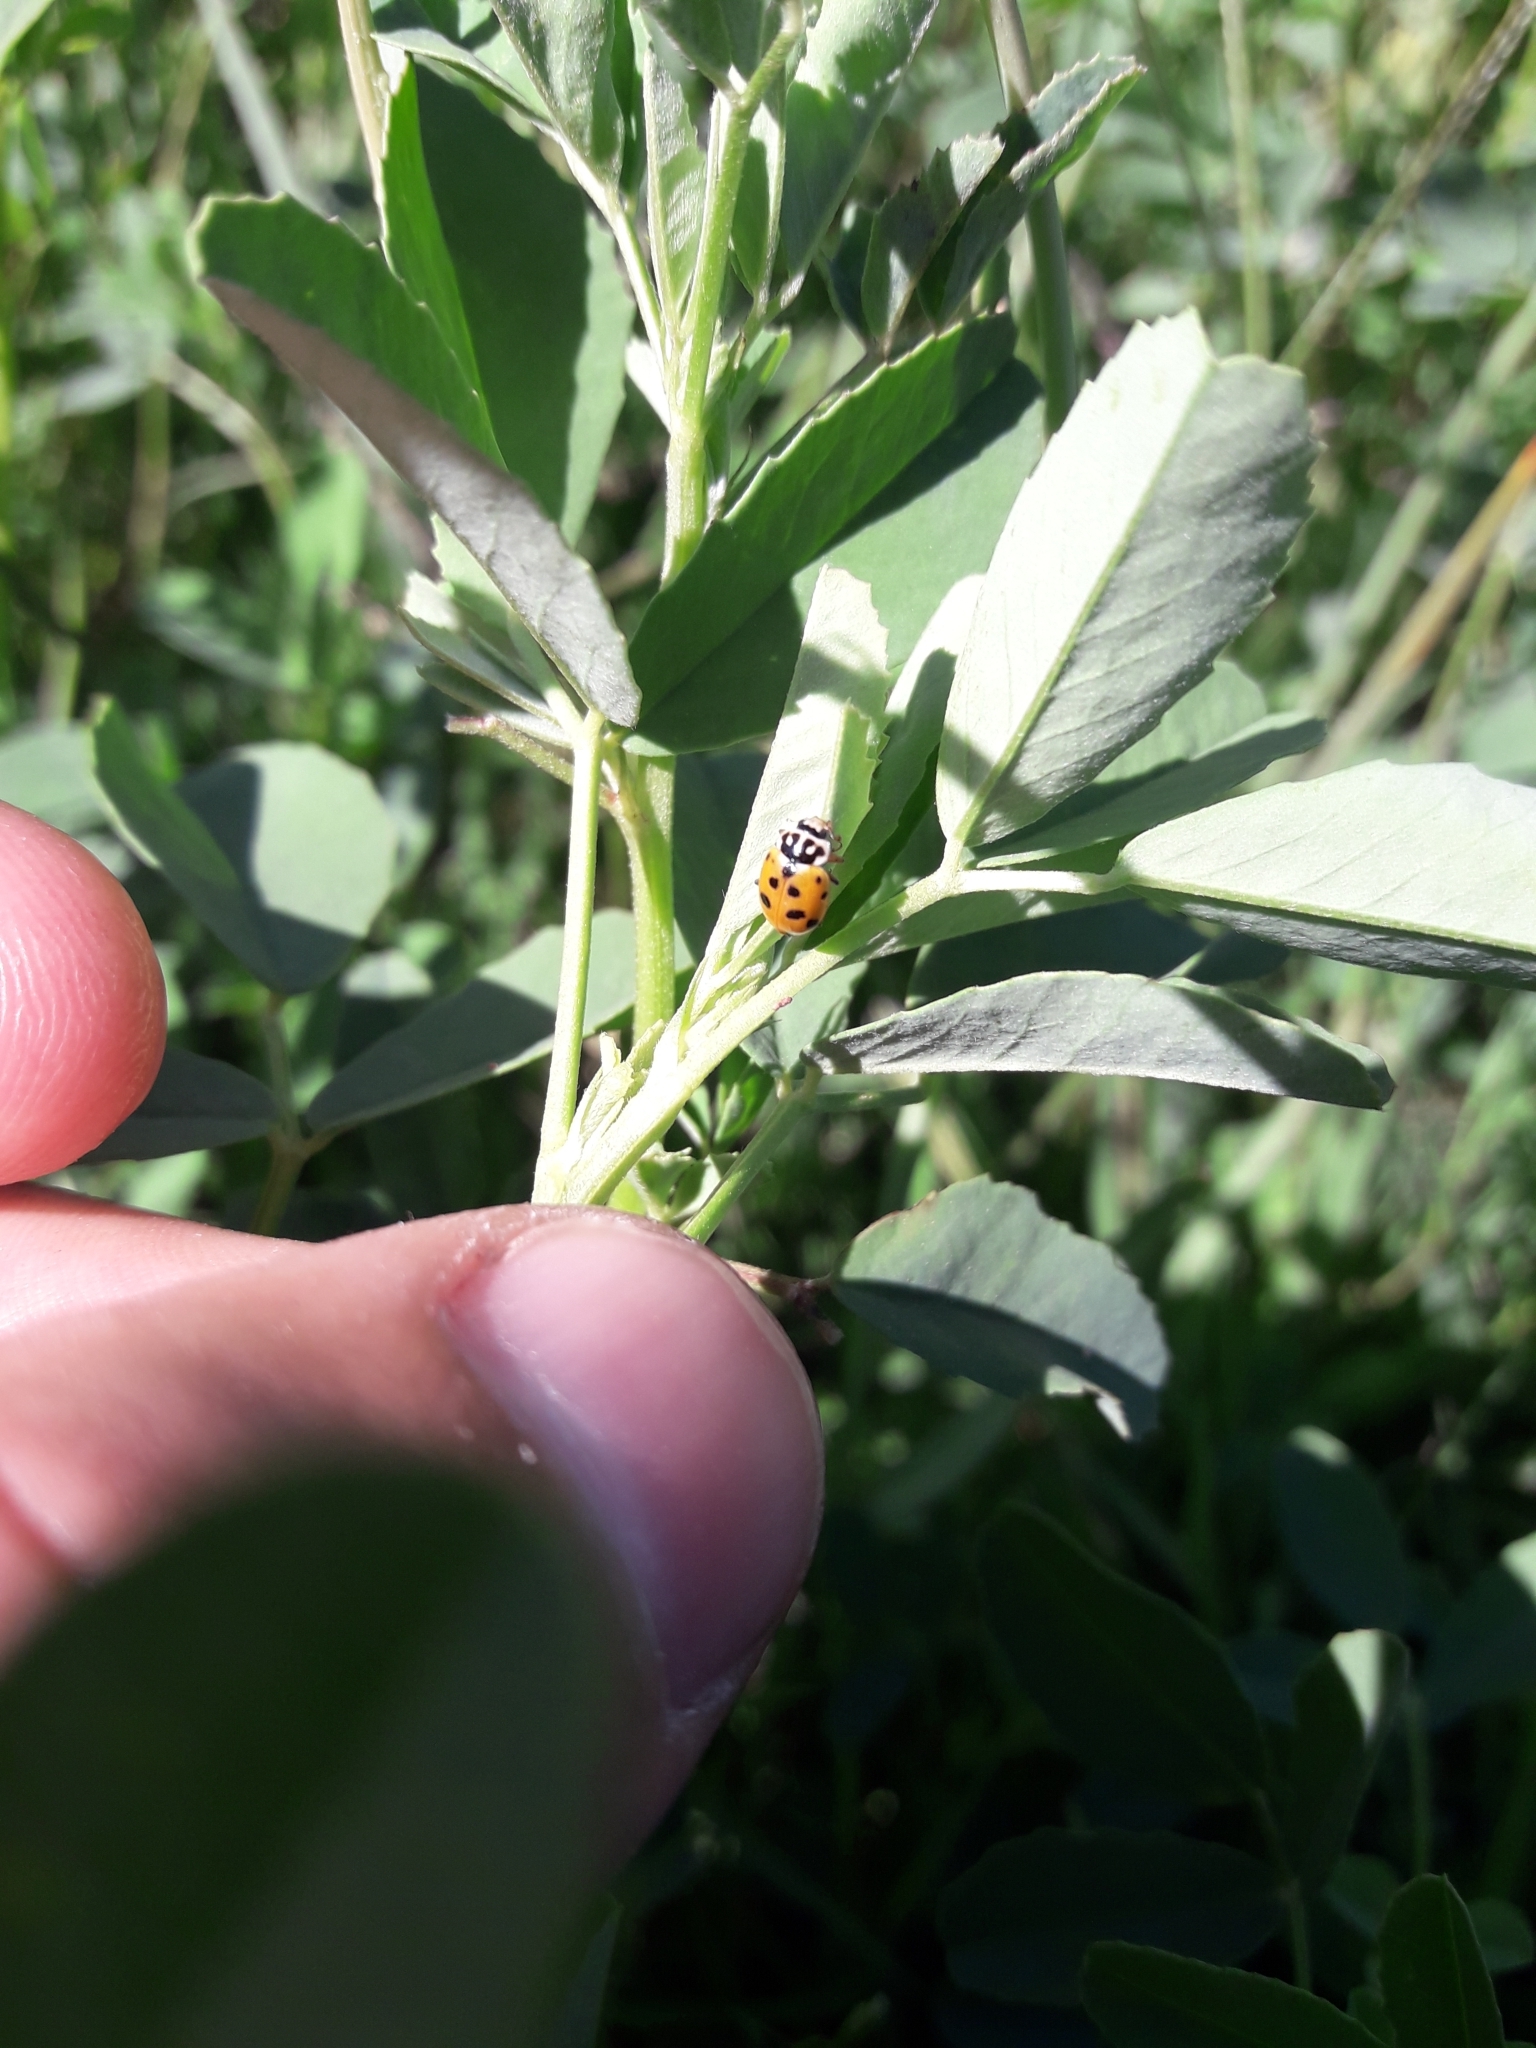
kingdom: Animalia
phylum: Arthropoda
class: Insecta
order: Coleoptera
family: Coccinellidae
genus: Hippodamia
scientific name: Hippodamia variegata
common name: Ladybird beetle
